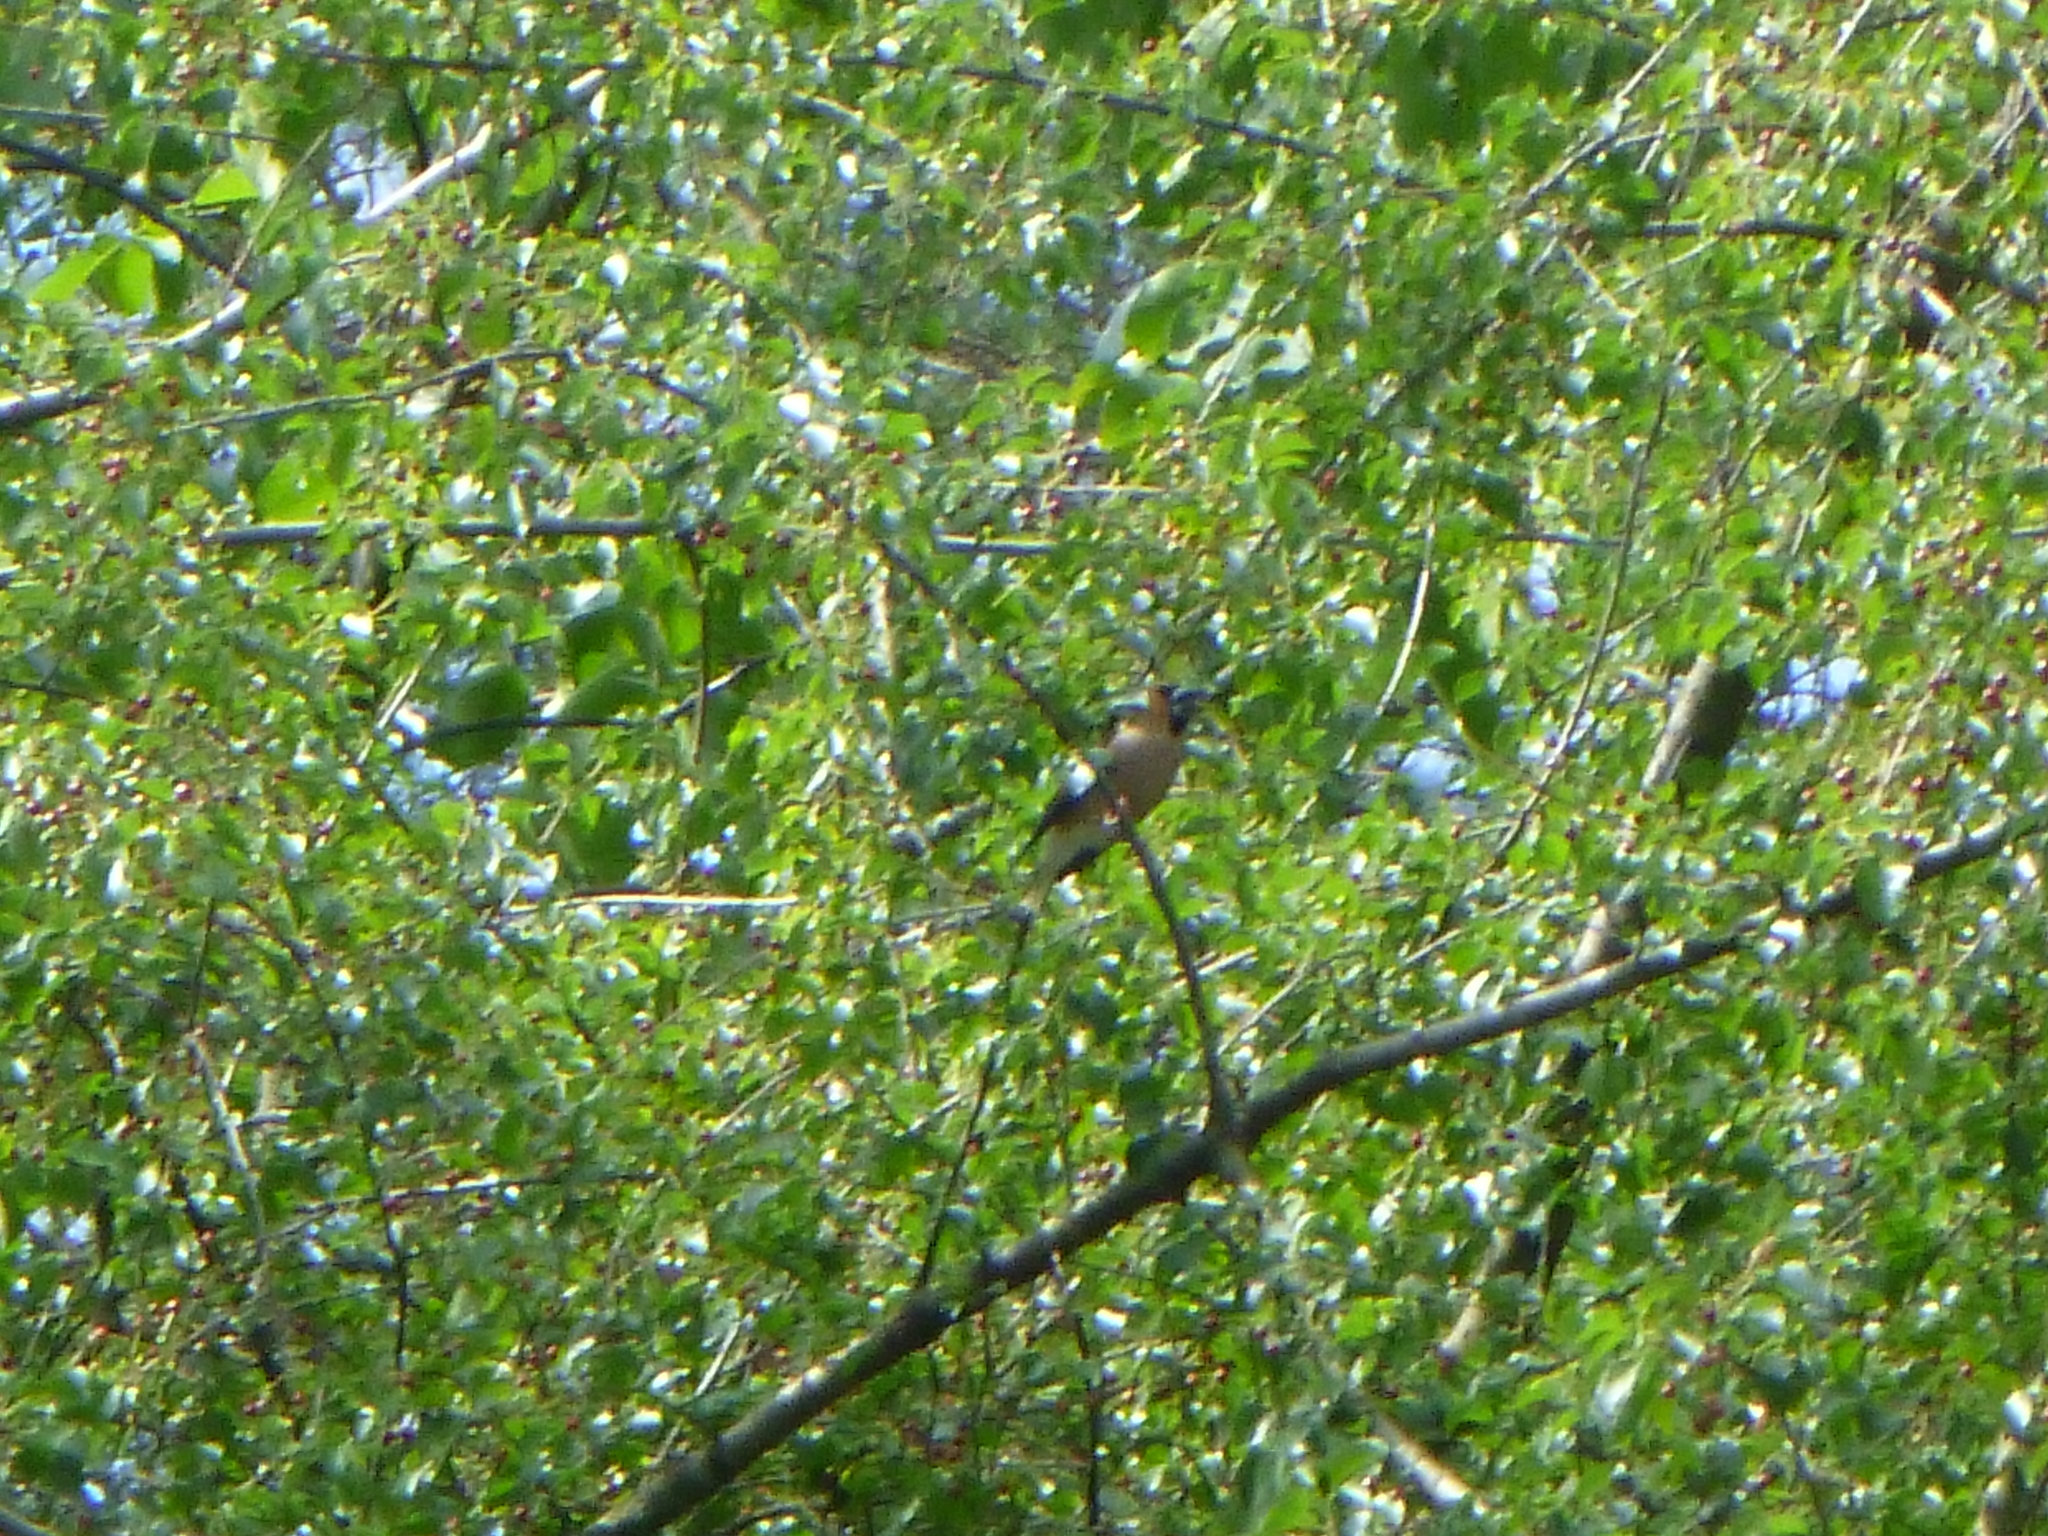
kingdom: Animalia
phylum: Chordata
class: Aves
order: Passeriformes
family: Fringillidae
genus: Coccothraustes
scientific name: Coccothraustes coccothraustes
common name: Hawfinch
